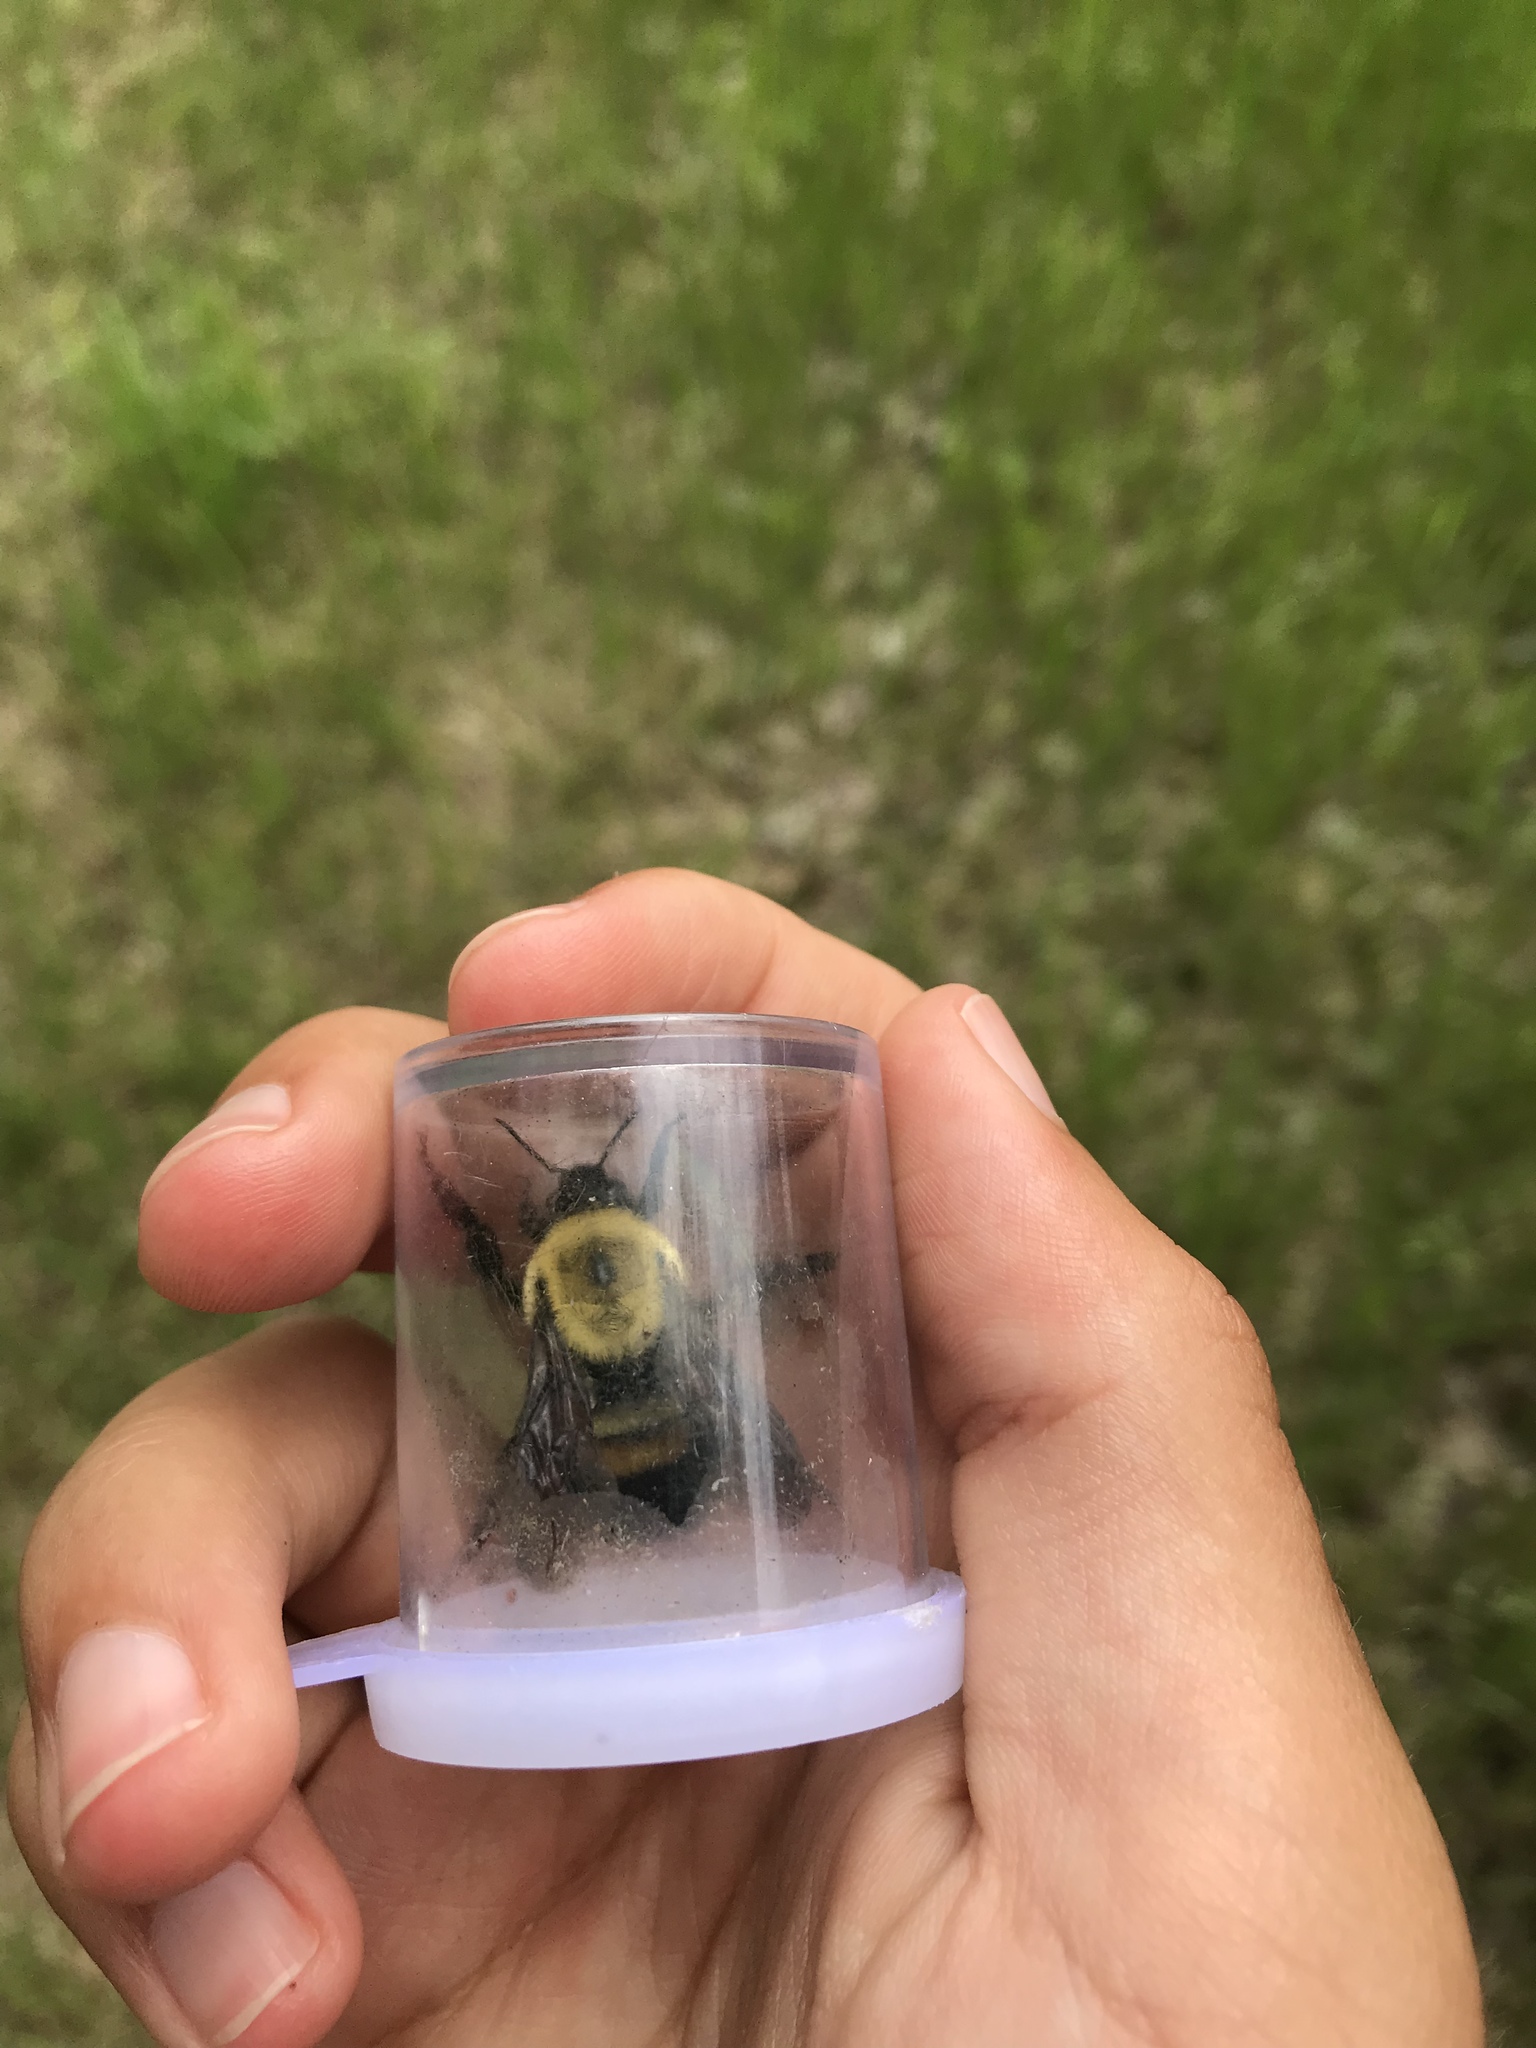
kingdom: Animalia
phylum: Arthropoda
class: Insecta
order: Hymenoptera
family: Apidae
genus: Bombus
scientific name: Bombus griseocollis
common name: Brown-belted bumble bee
